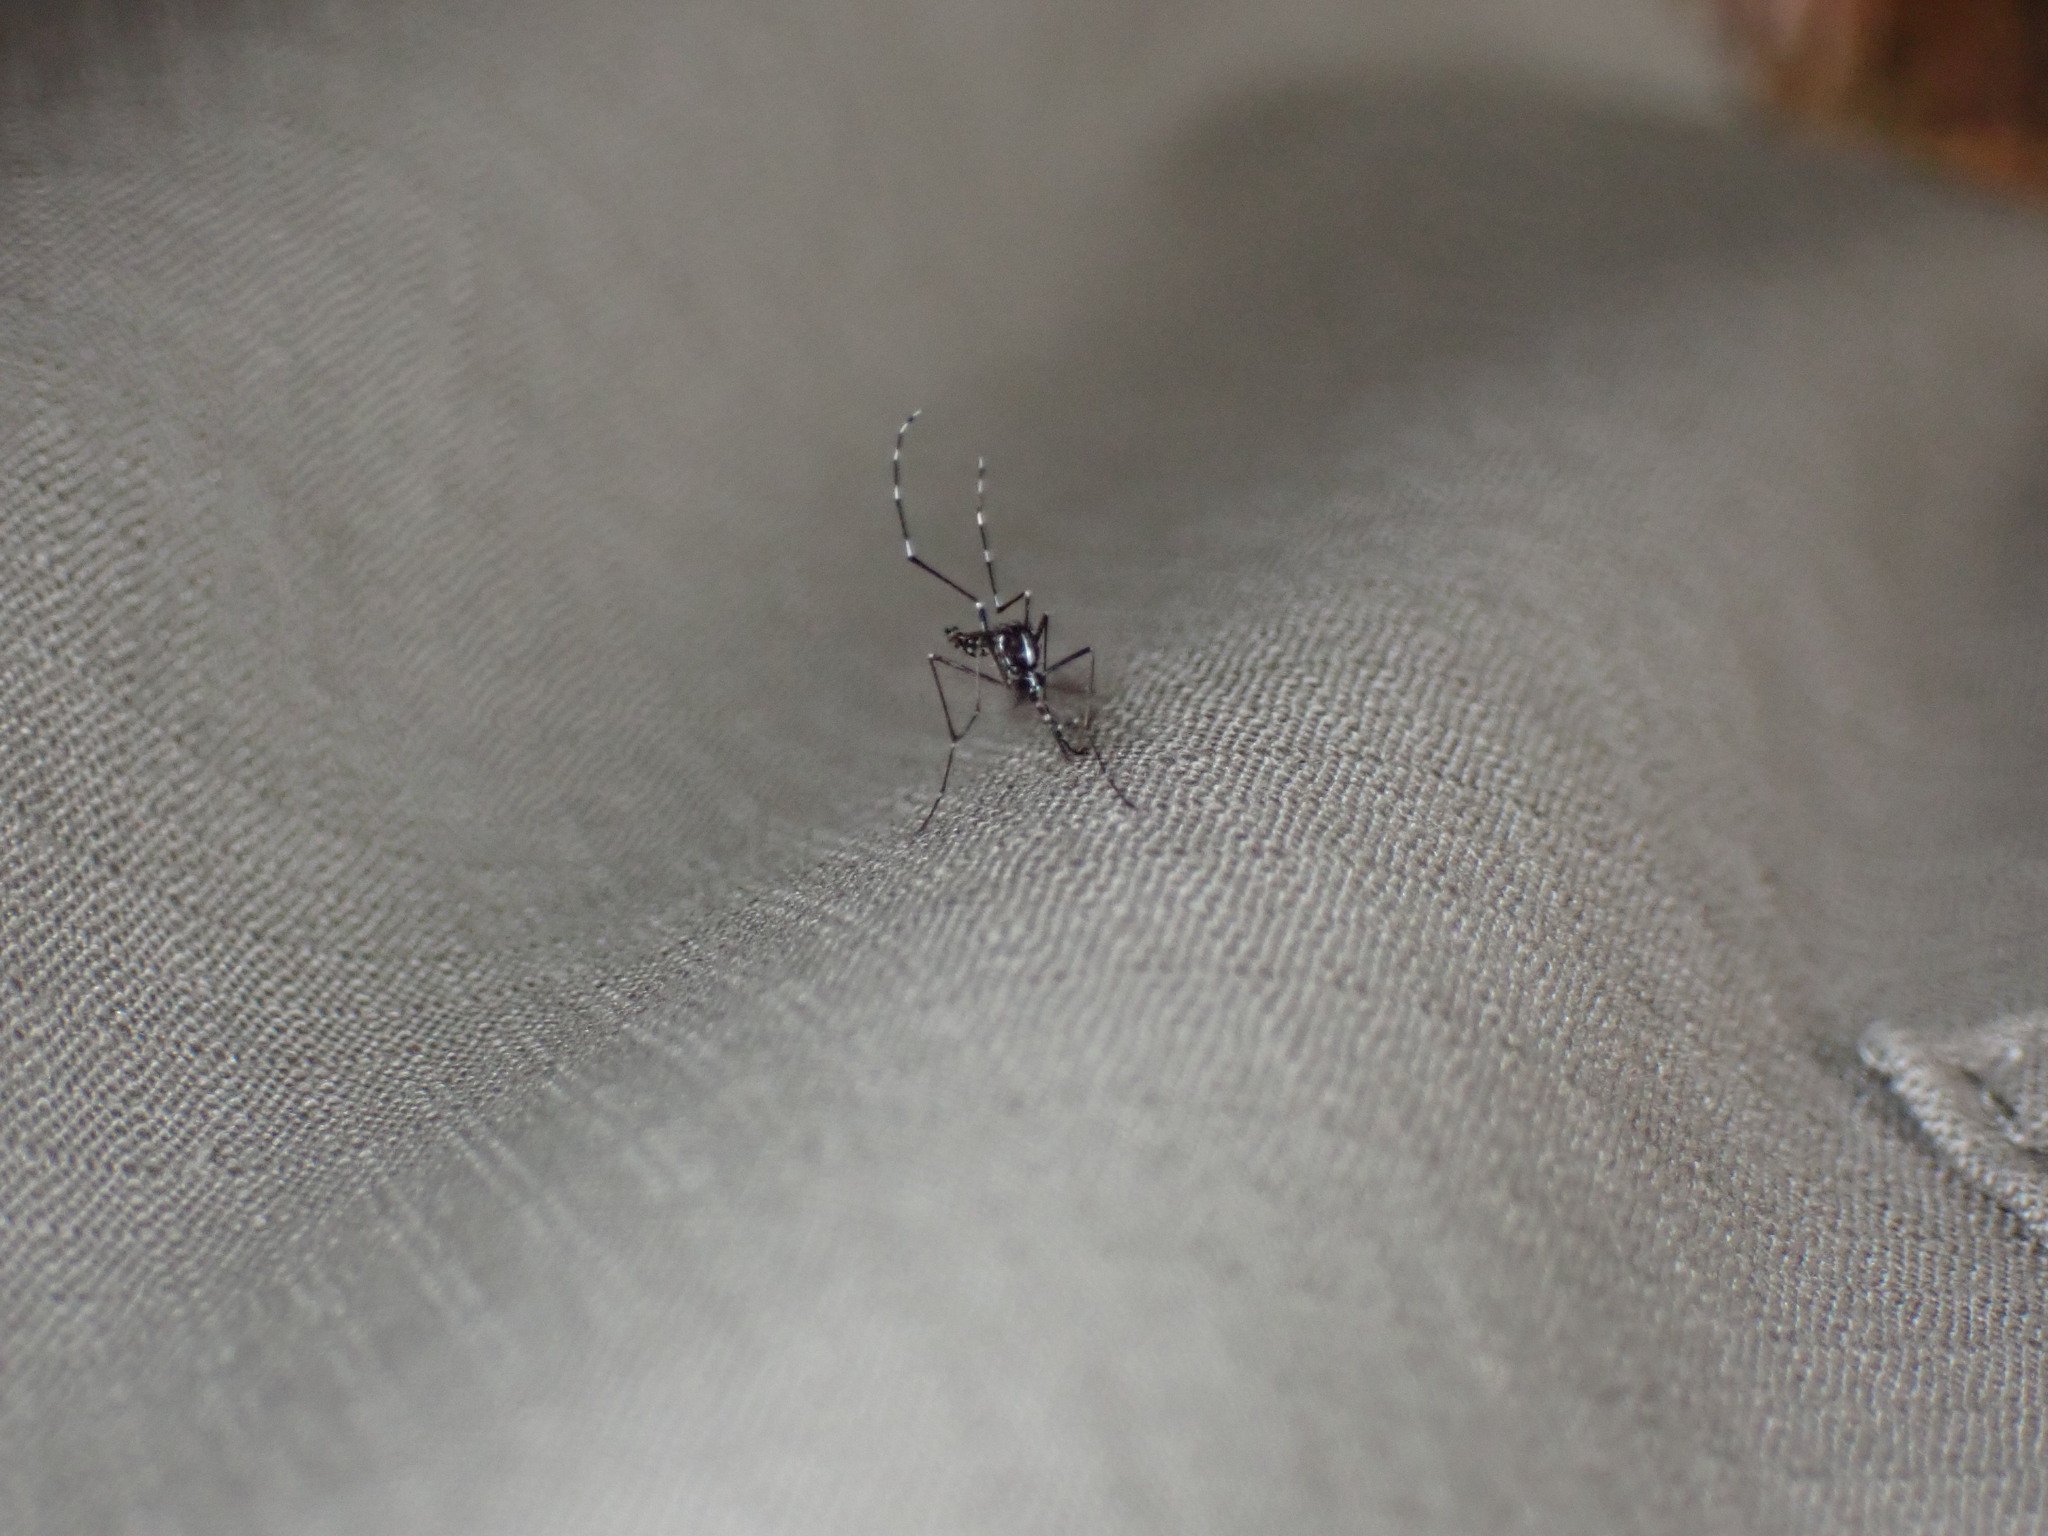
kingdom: Animalia
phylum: Arthropoda
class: Insecta
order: Diptera
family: Culicidae
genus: Aedes
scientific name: Aedes albopictus
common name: Tiger mosquito
